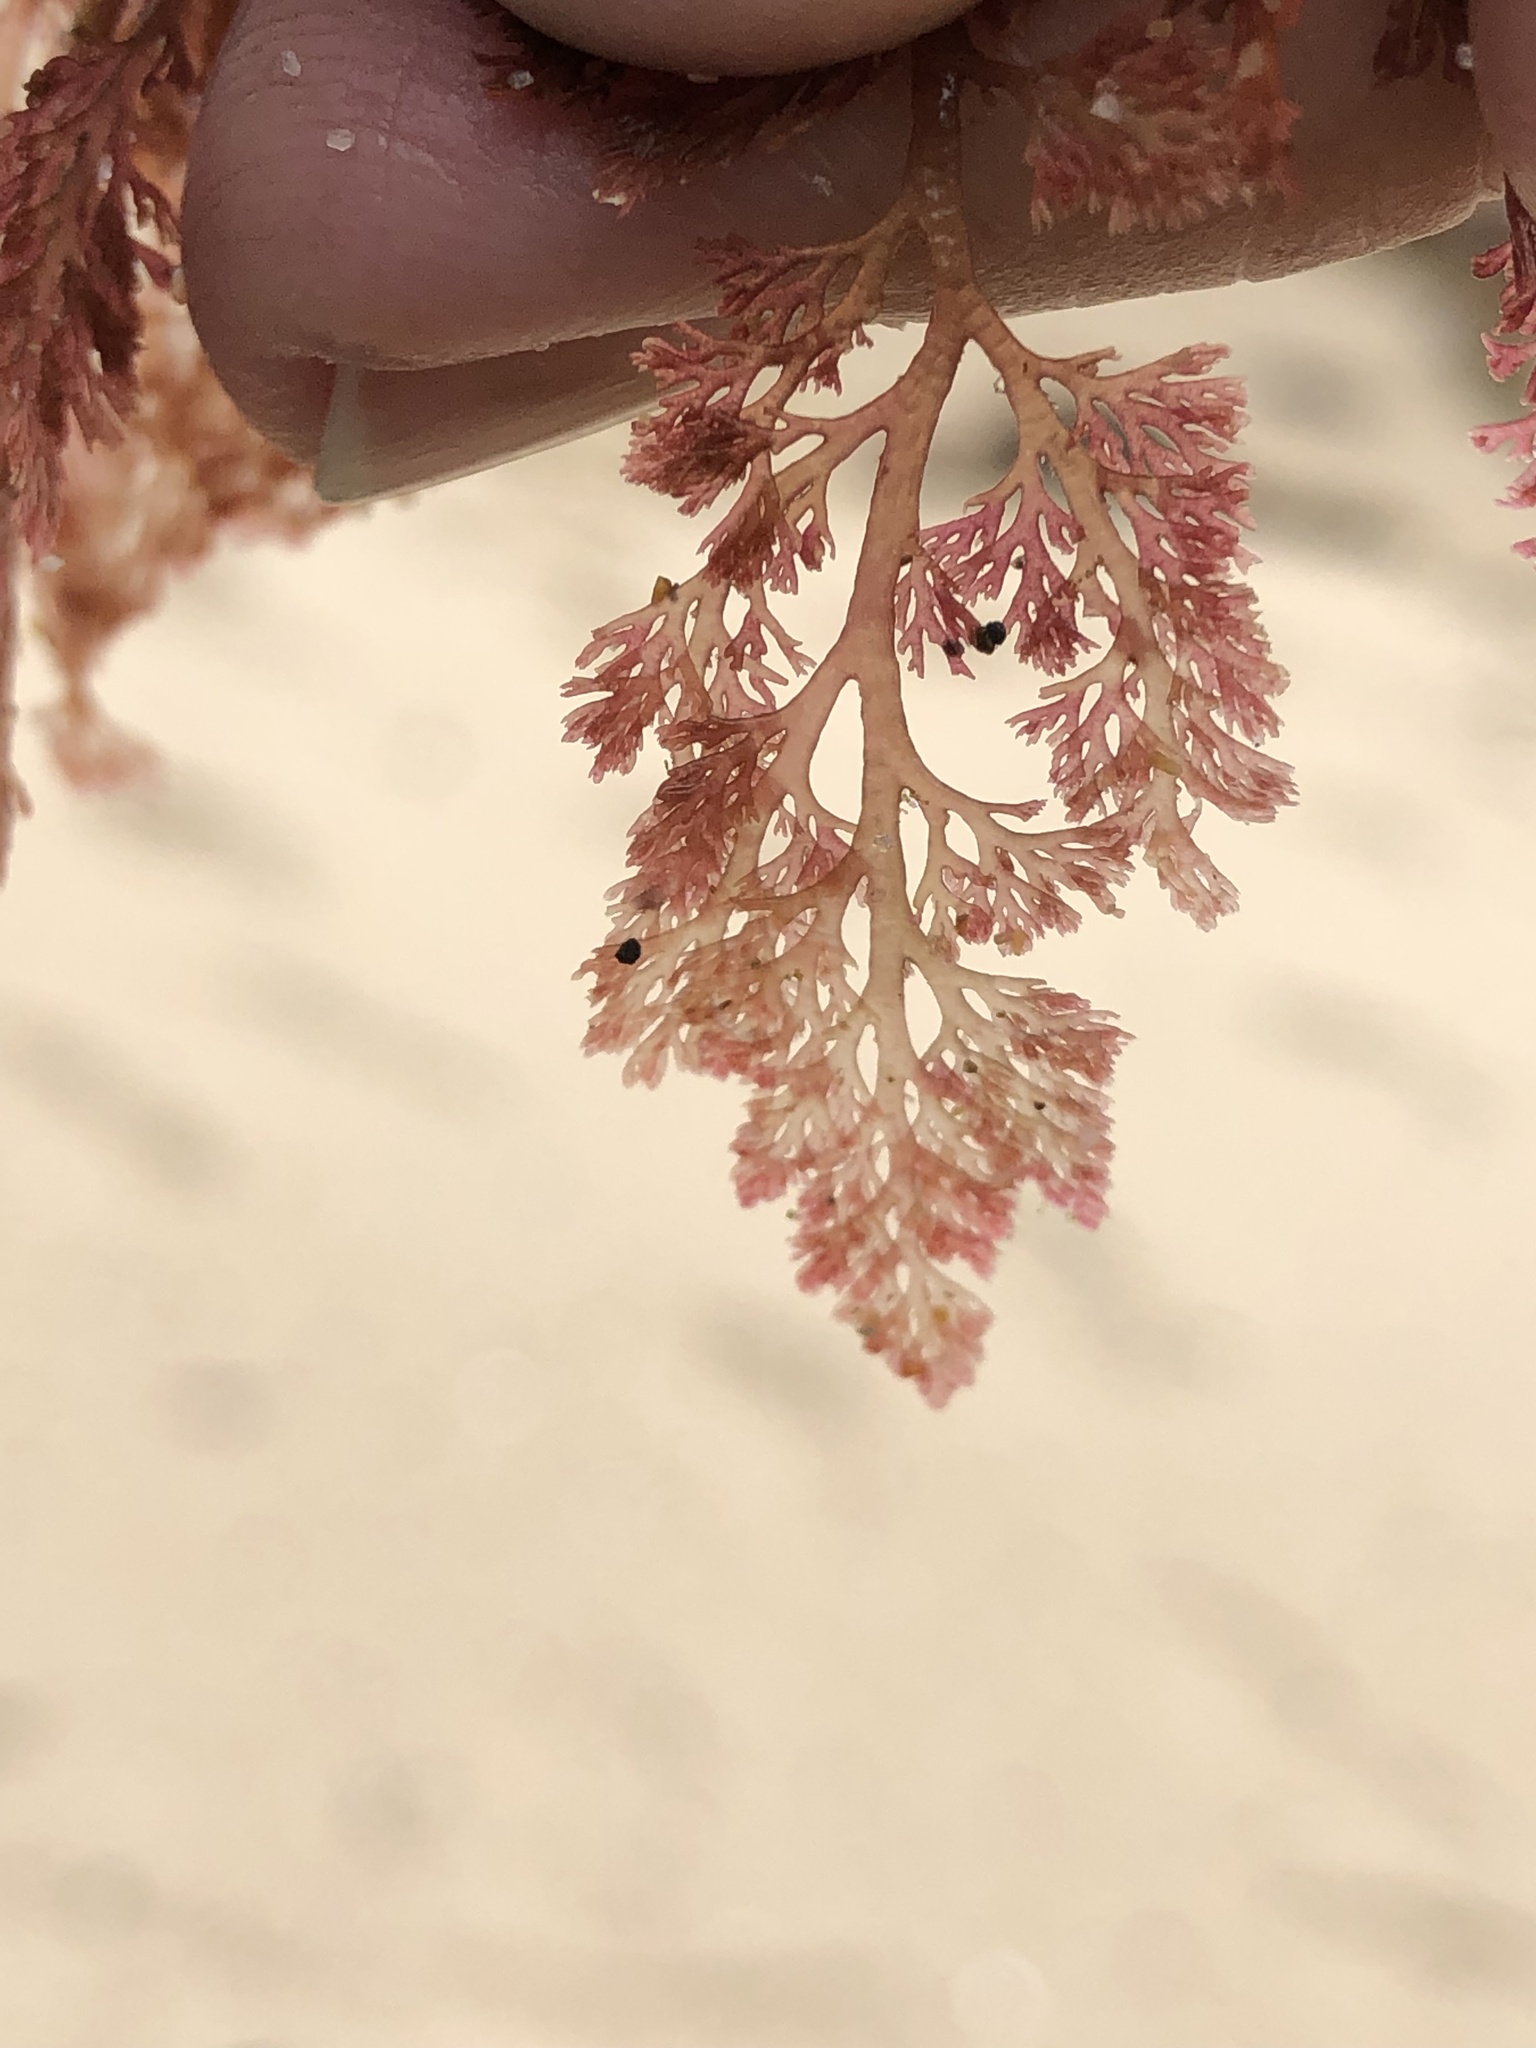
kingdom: Plantae
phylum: Rhodophyta
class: Florideophyceae
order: Ceramiales
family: Ceramiaceae
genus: Microcladia
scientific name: Microcladia coulteri
